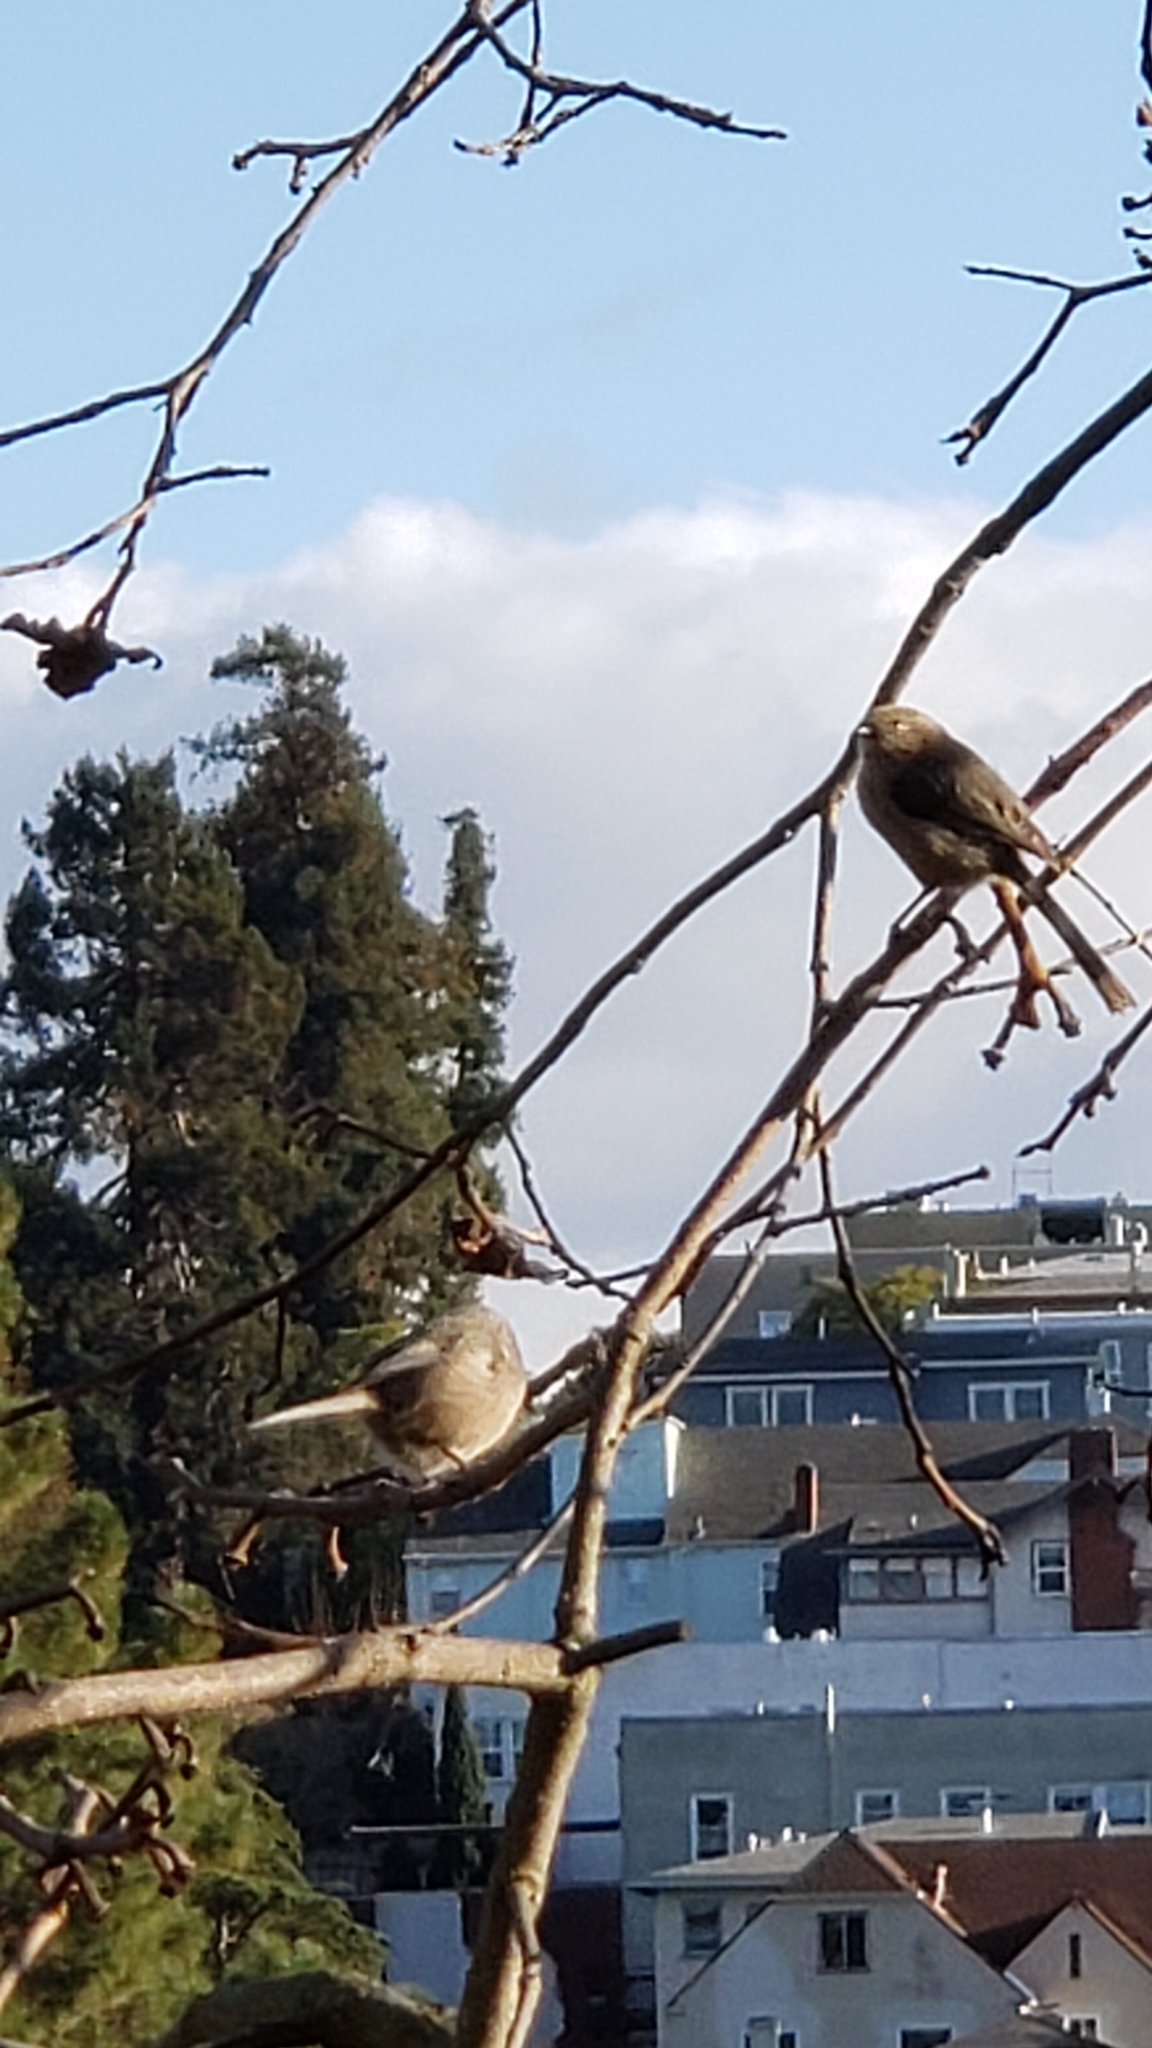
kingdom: Animalia
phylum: Chordata
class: Aves
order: Passeriformes
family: Aegithalidae
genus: Psaltriparus
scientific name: Psaltriparus minimus
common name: American bushtit
